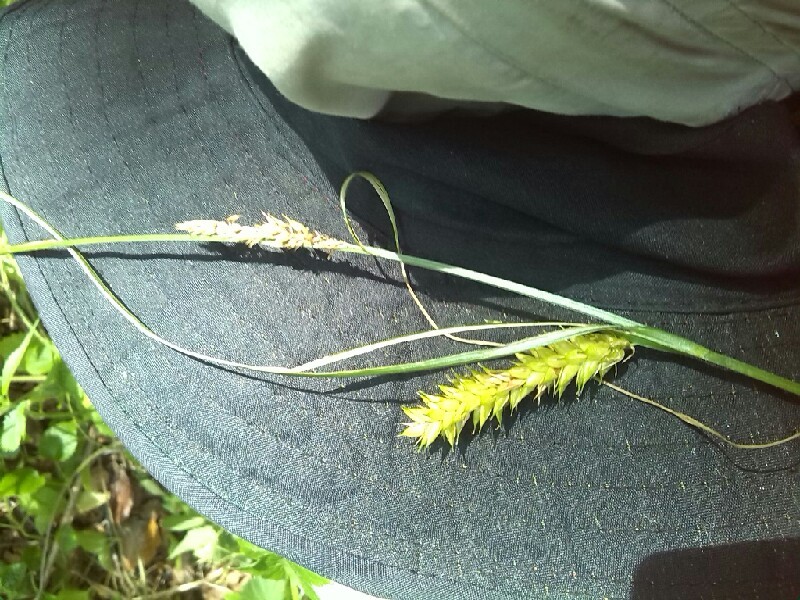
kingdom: Plantae
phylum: Tracheophyta
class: Liliopsida
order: Poales
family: Cyperaceae
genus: Carex
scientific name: Carex vesicaria
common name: Bladder-sedge
